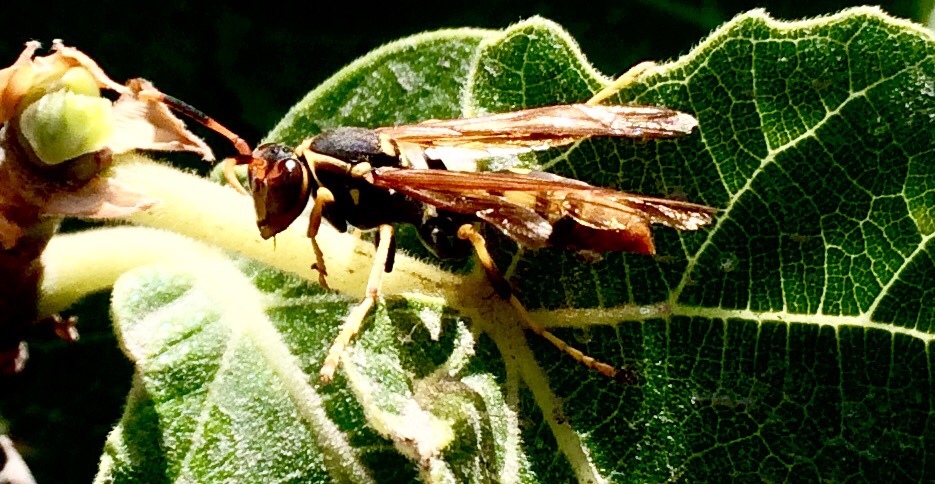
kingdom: Animalia
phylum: Arthropoda
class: Insecta
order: Hymenoptera
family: Eumenidae
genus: Polistes
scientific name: Polistes peruvianus
